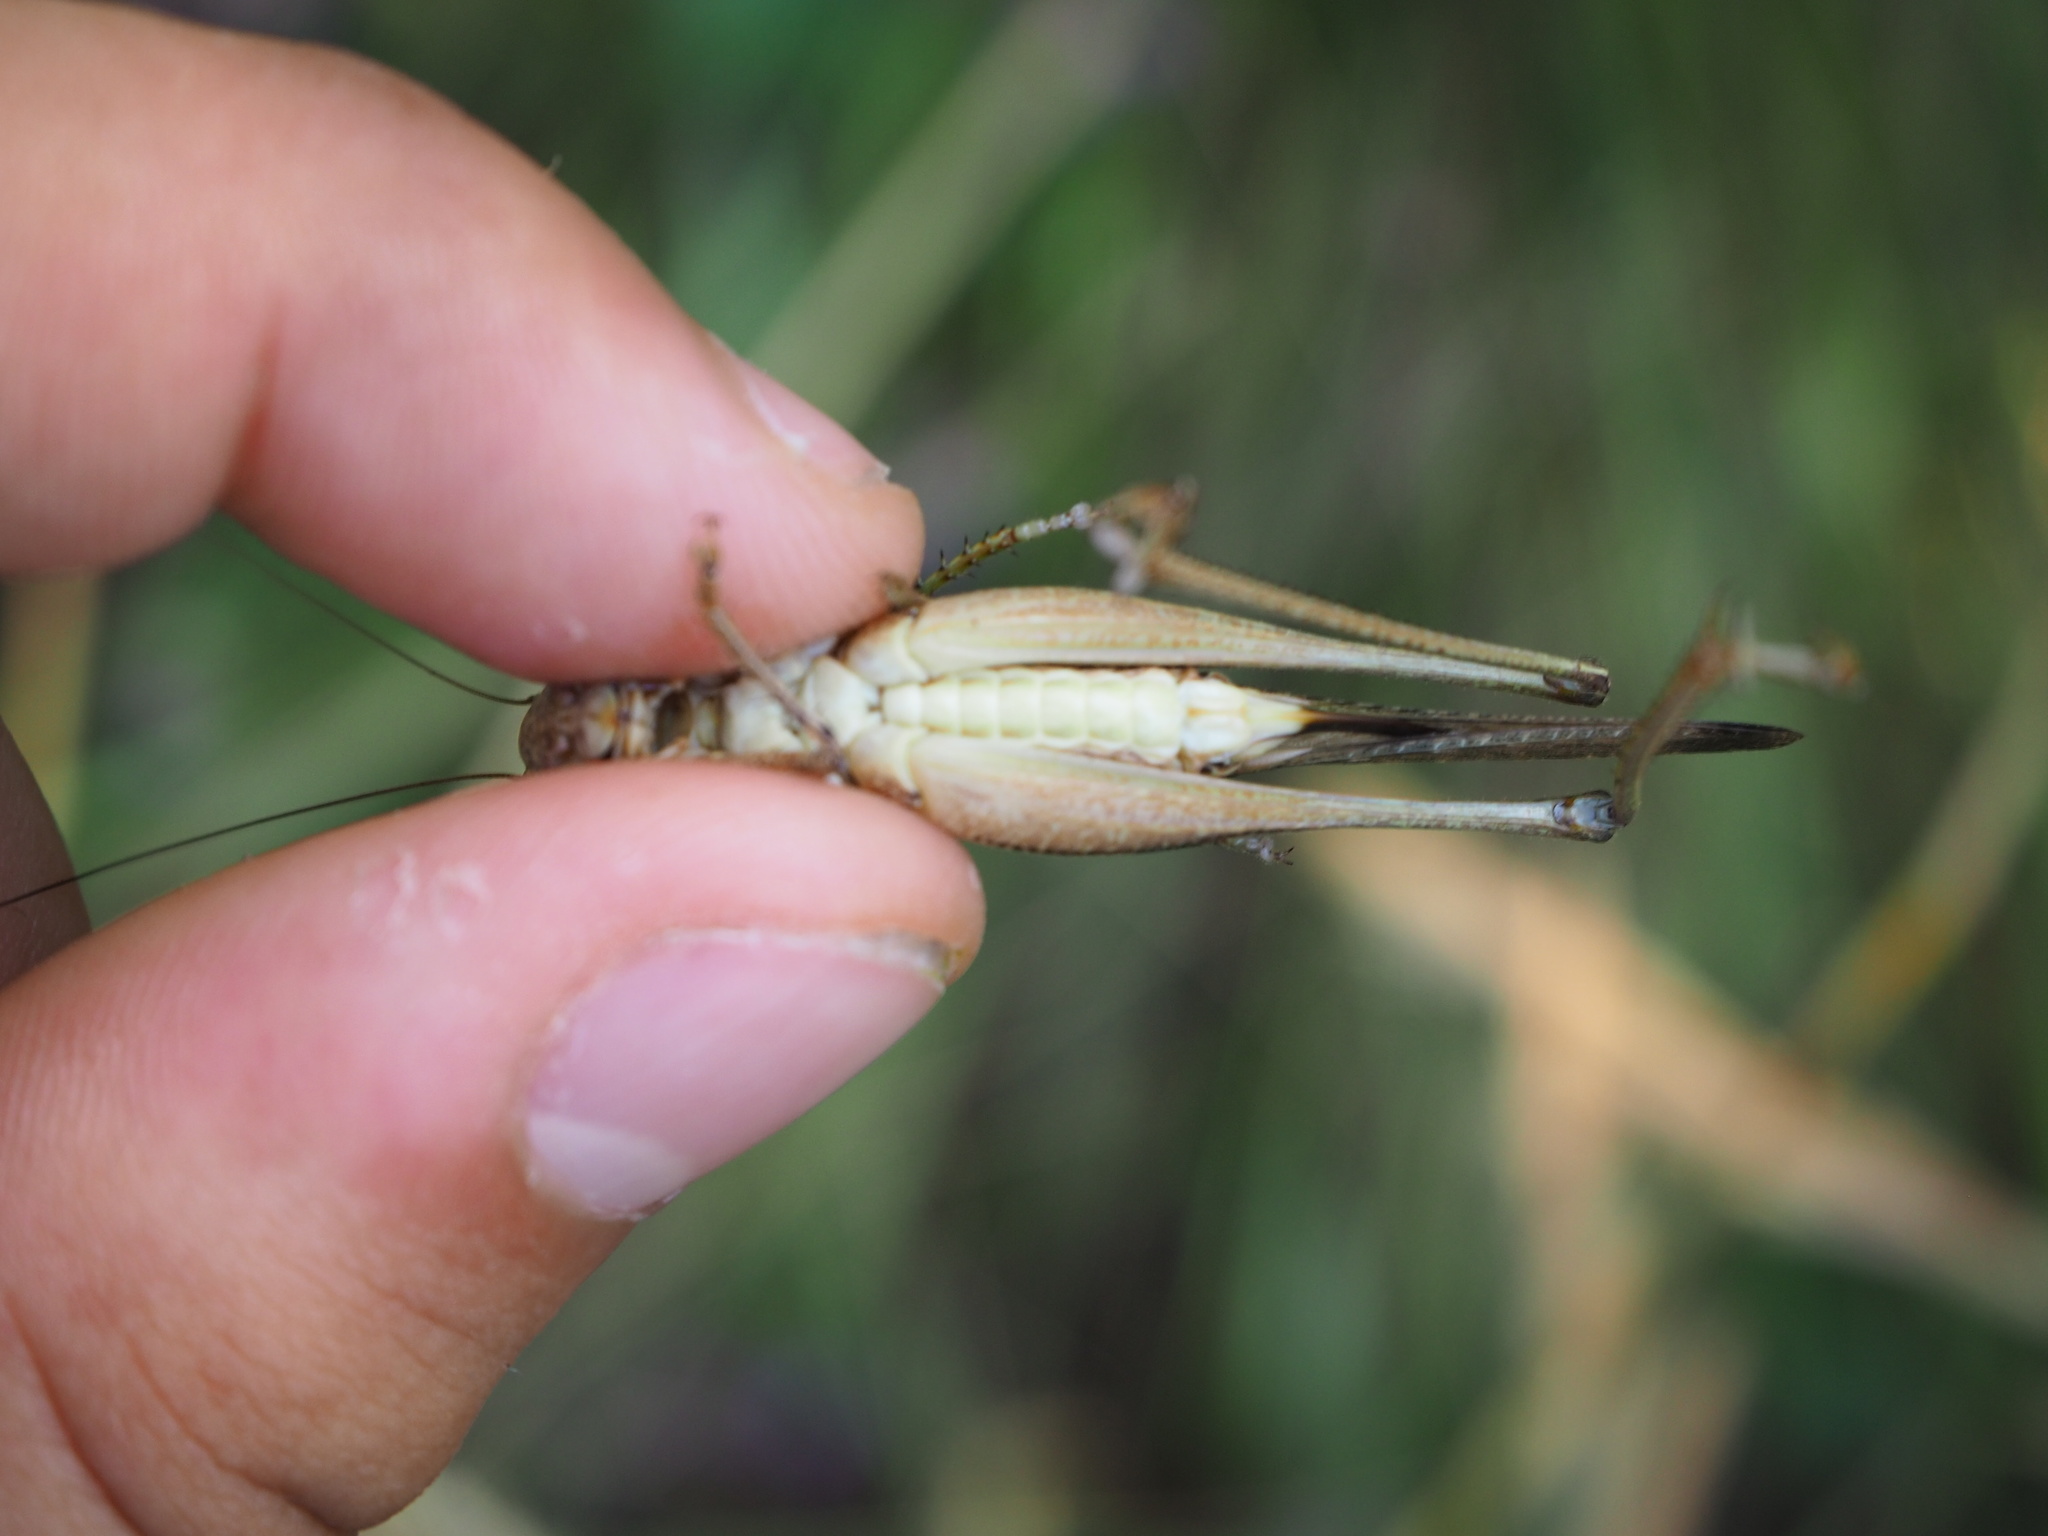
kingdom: Animalia
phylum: Arthropoda
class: Insecta
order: Orthoptera
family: Tettigoniidae
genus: Platycleis
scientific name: Platycleis grisea
